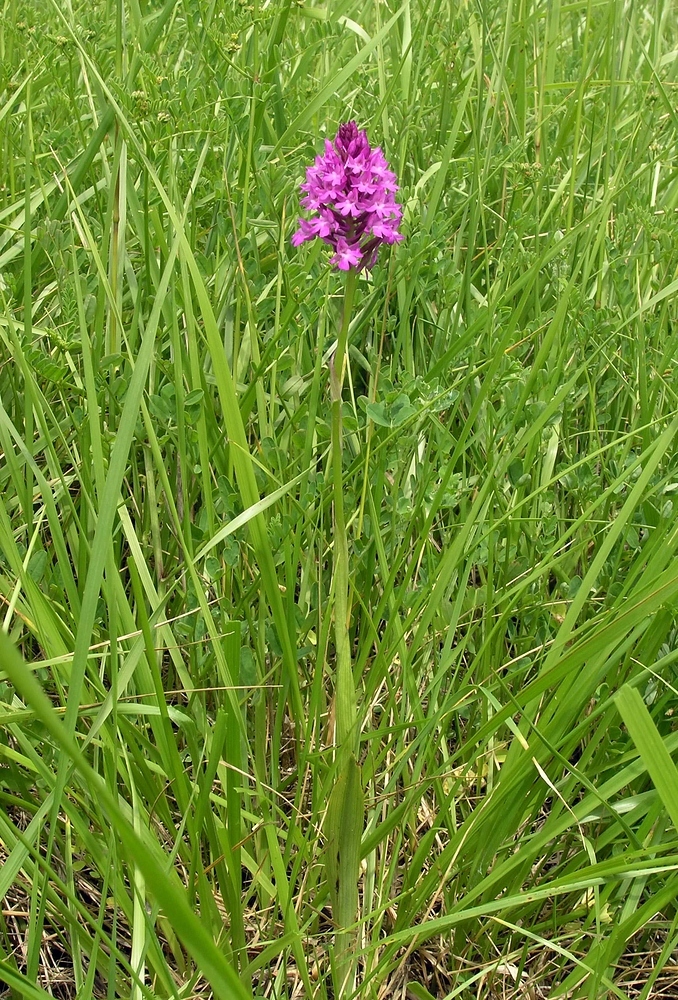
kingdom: Plantae
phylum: Tracheophyta
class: Liliopsida
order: Asparagales
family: Orchidaceae
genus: Anacamptis
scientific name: Anacamptis pyramidalis
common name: Pyramidal orchid
